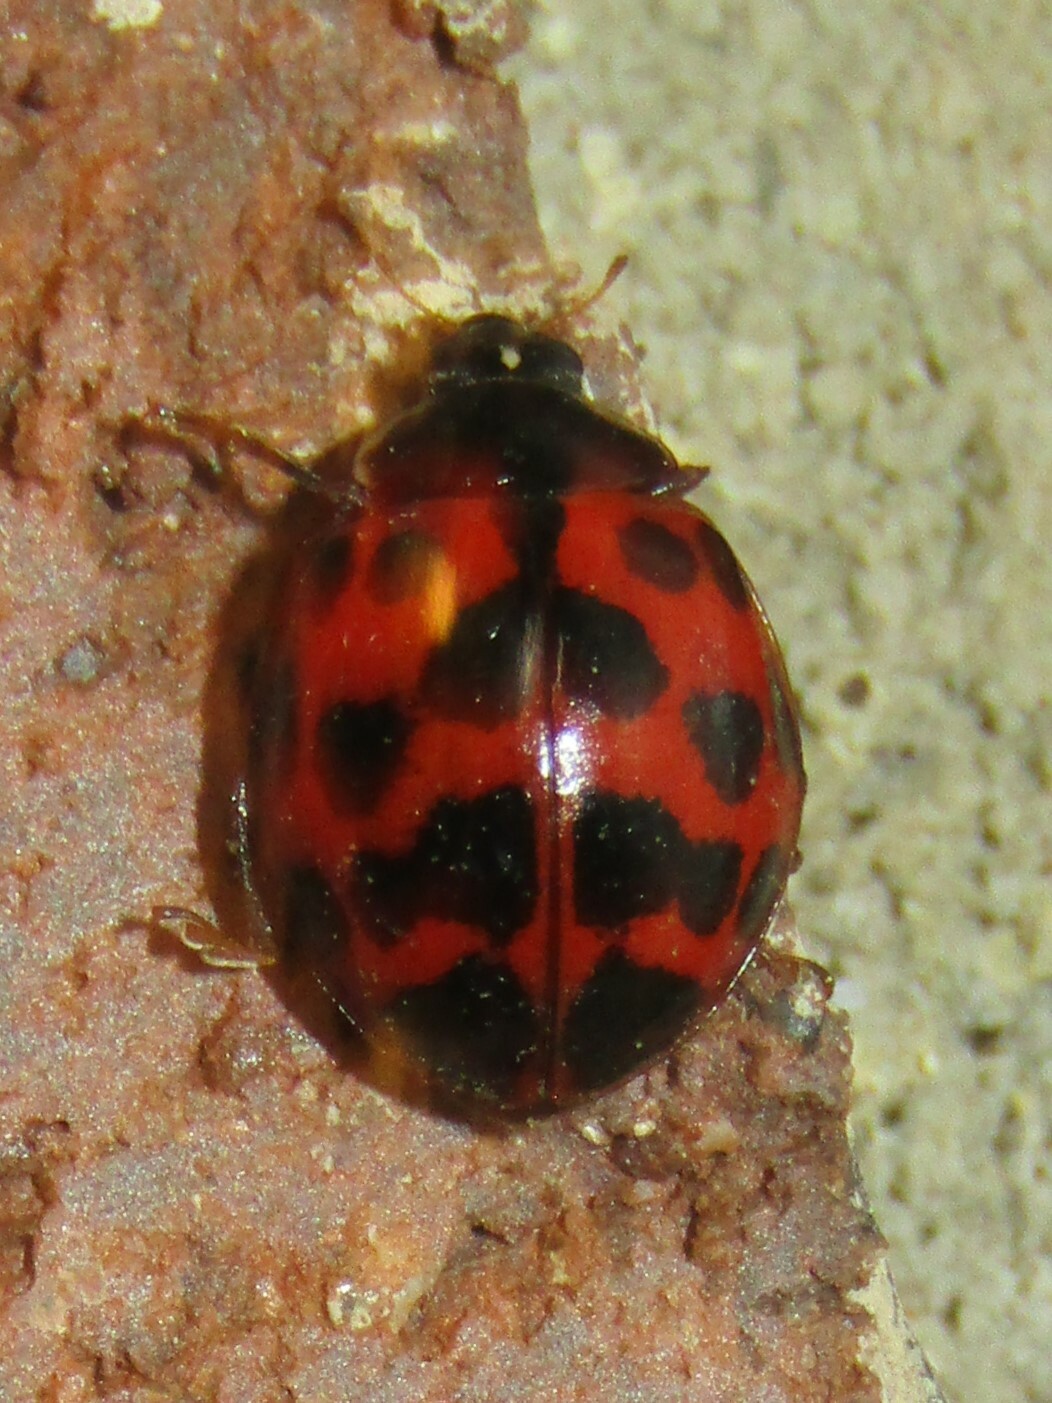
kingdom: Animalia
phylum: Arthropoda
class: Insecta
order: Coleoptera
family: Coccinellidae
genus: Harmonia
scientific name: Harmonia axyridis
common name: Harlequin ladybird
